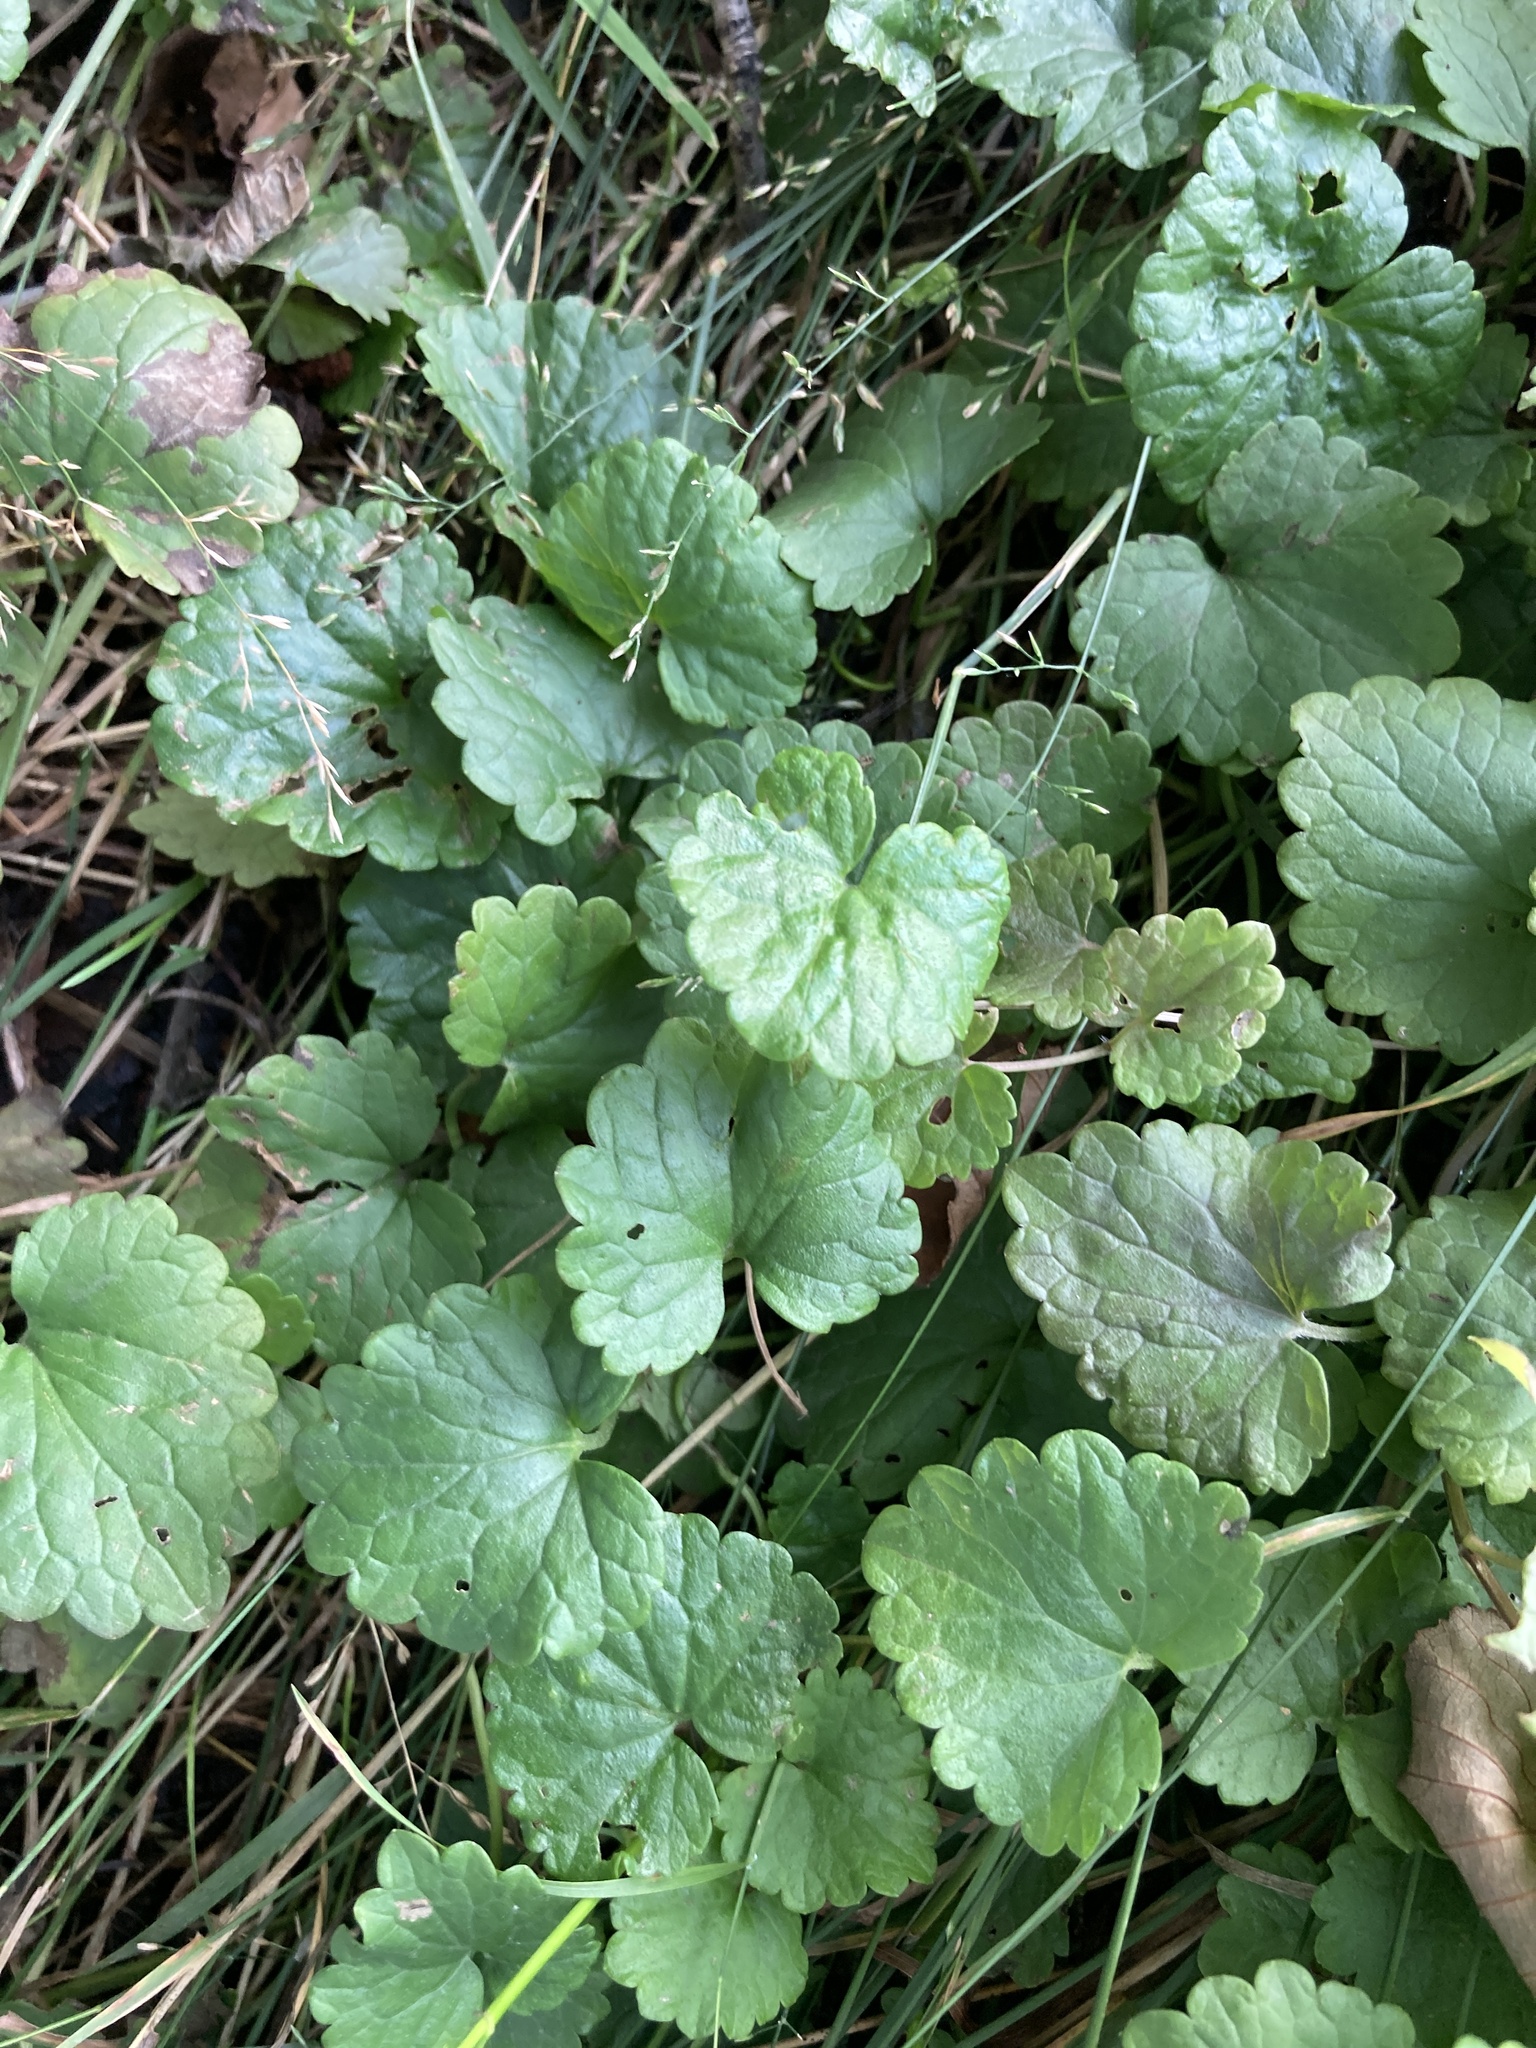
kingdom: Plantae
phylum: Tracheophyta
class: Magnoliopsida
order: Lamiales
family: Lamiaceae
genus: Glechoma
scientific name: Glechoma hederacea
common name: Ground ivy
